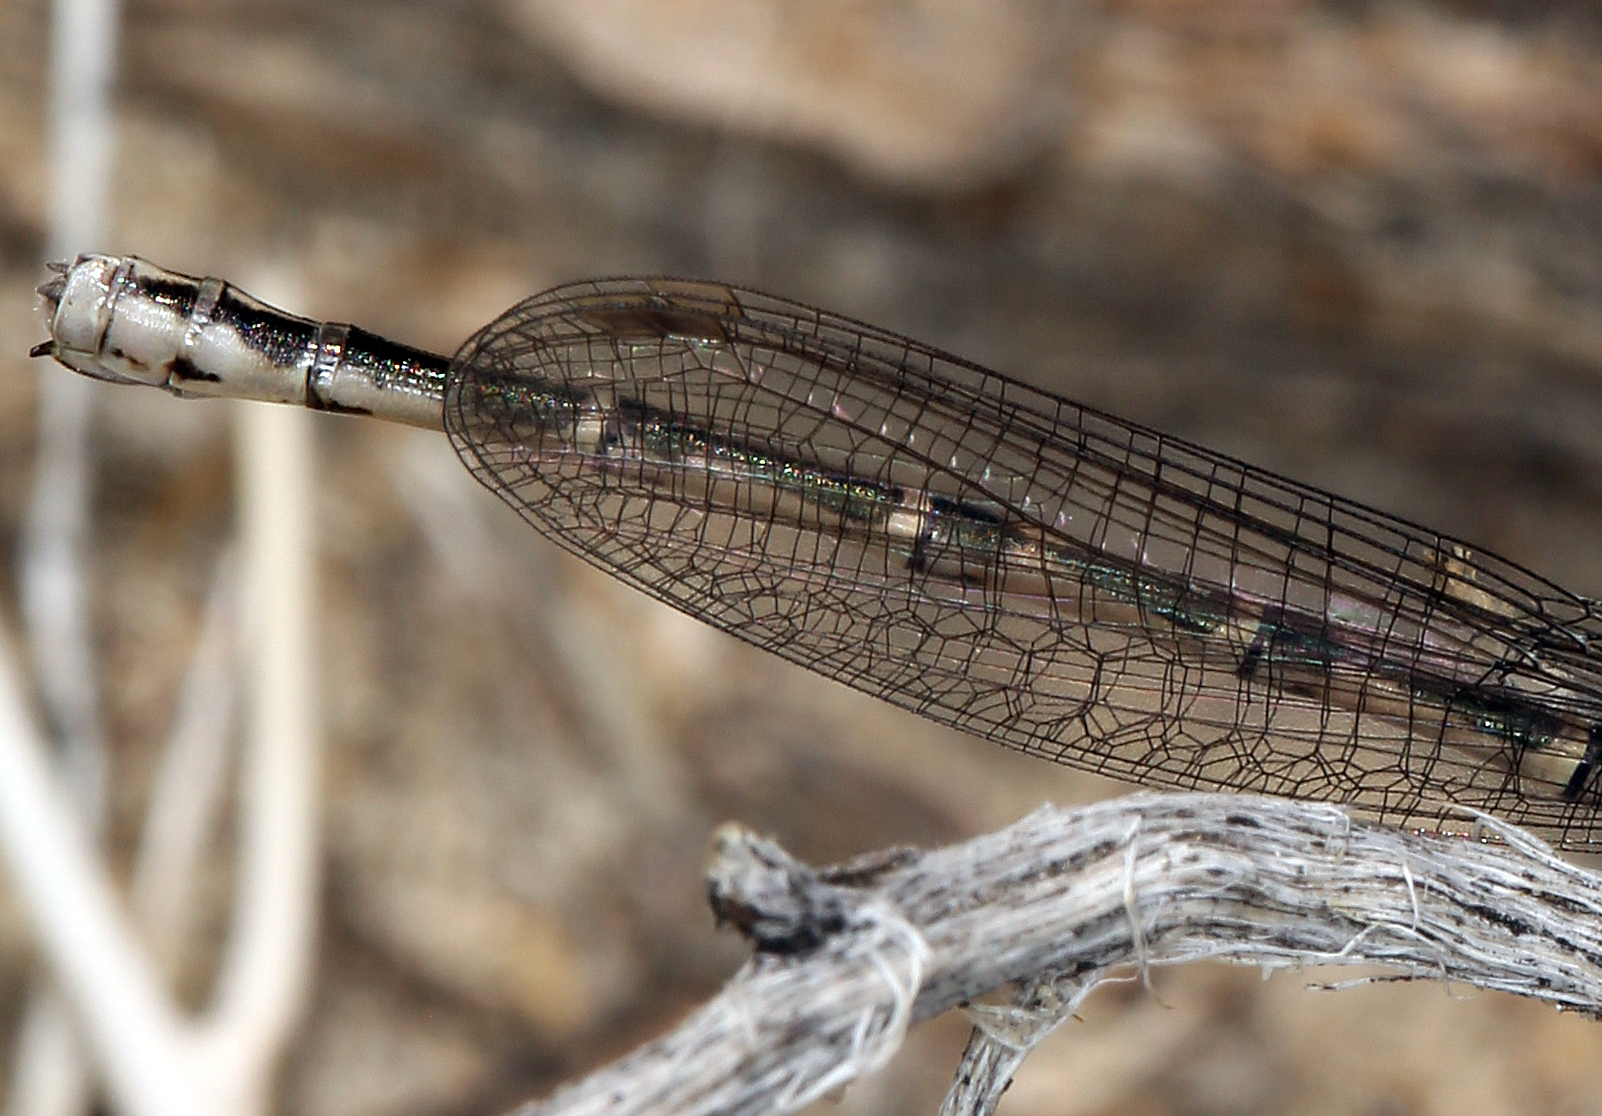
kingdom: Animalia
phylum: Arthropoda
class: Insecta
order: Odonata
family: Coenagrionidae
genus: Argia
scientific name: Argia alberta
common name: Paiute dancer
